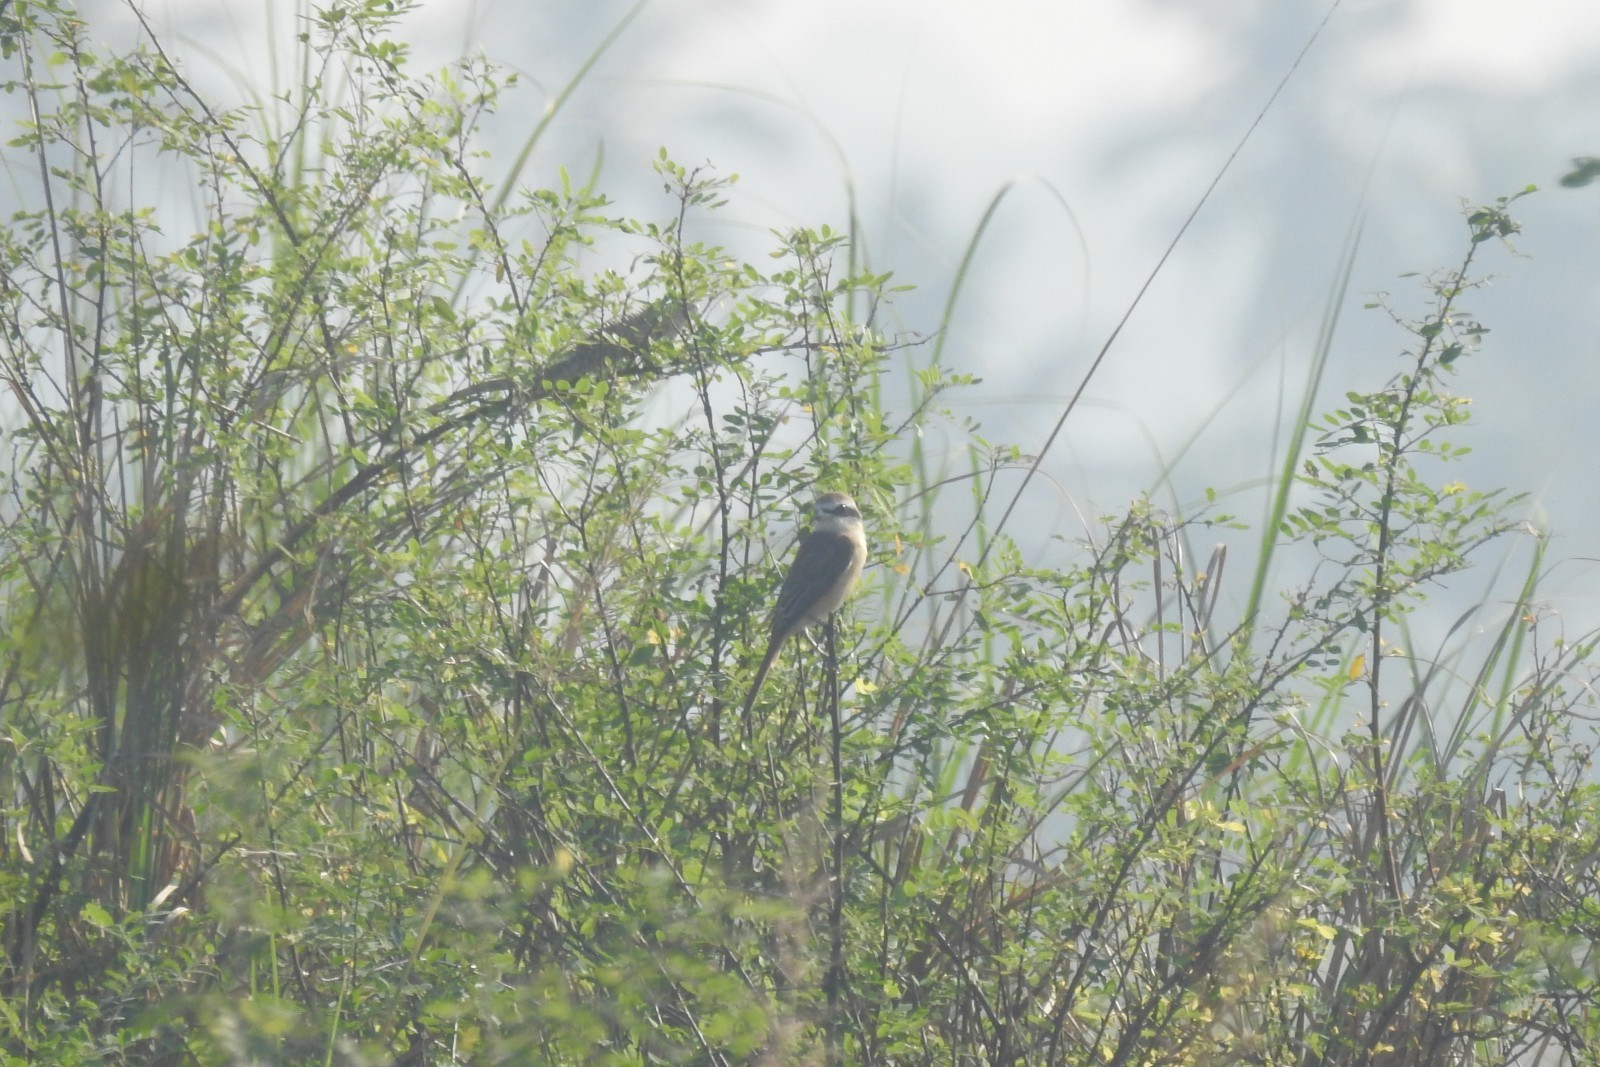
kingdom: Animalia
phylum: Chordata
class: Aves
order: Passeriformes
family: Laniidae
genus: Lanius
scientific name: Lanius cristatus
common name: Brown shrike
